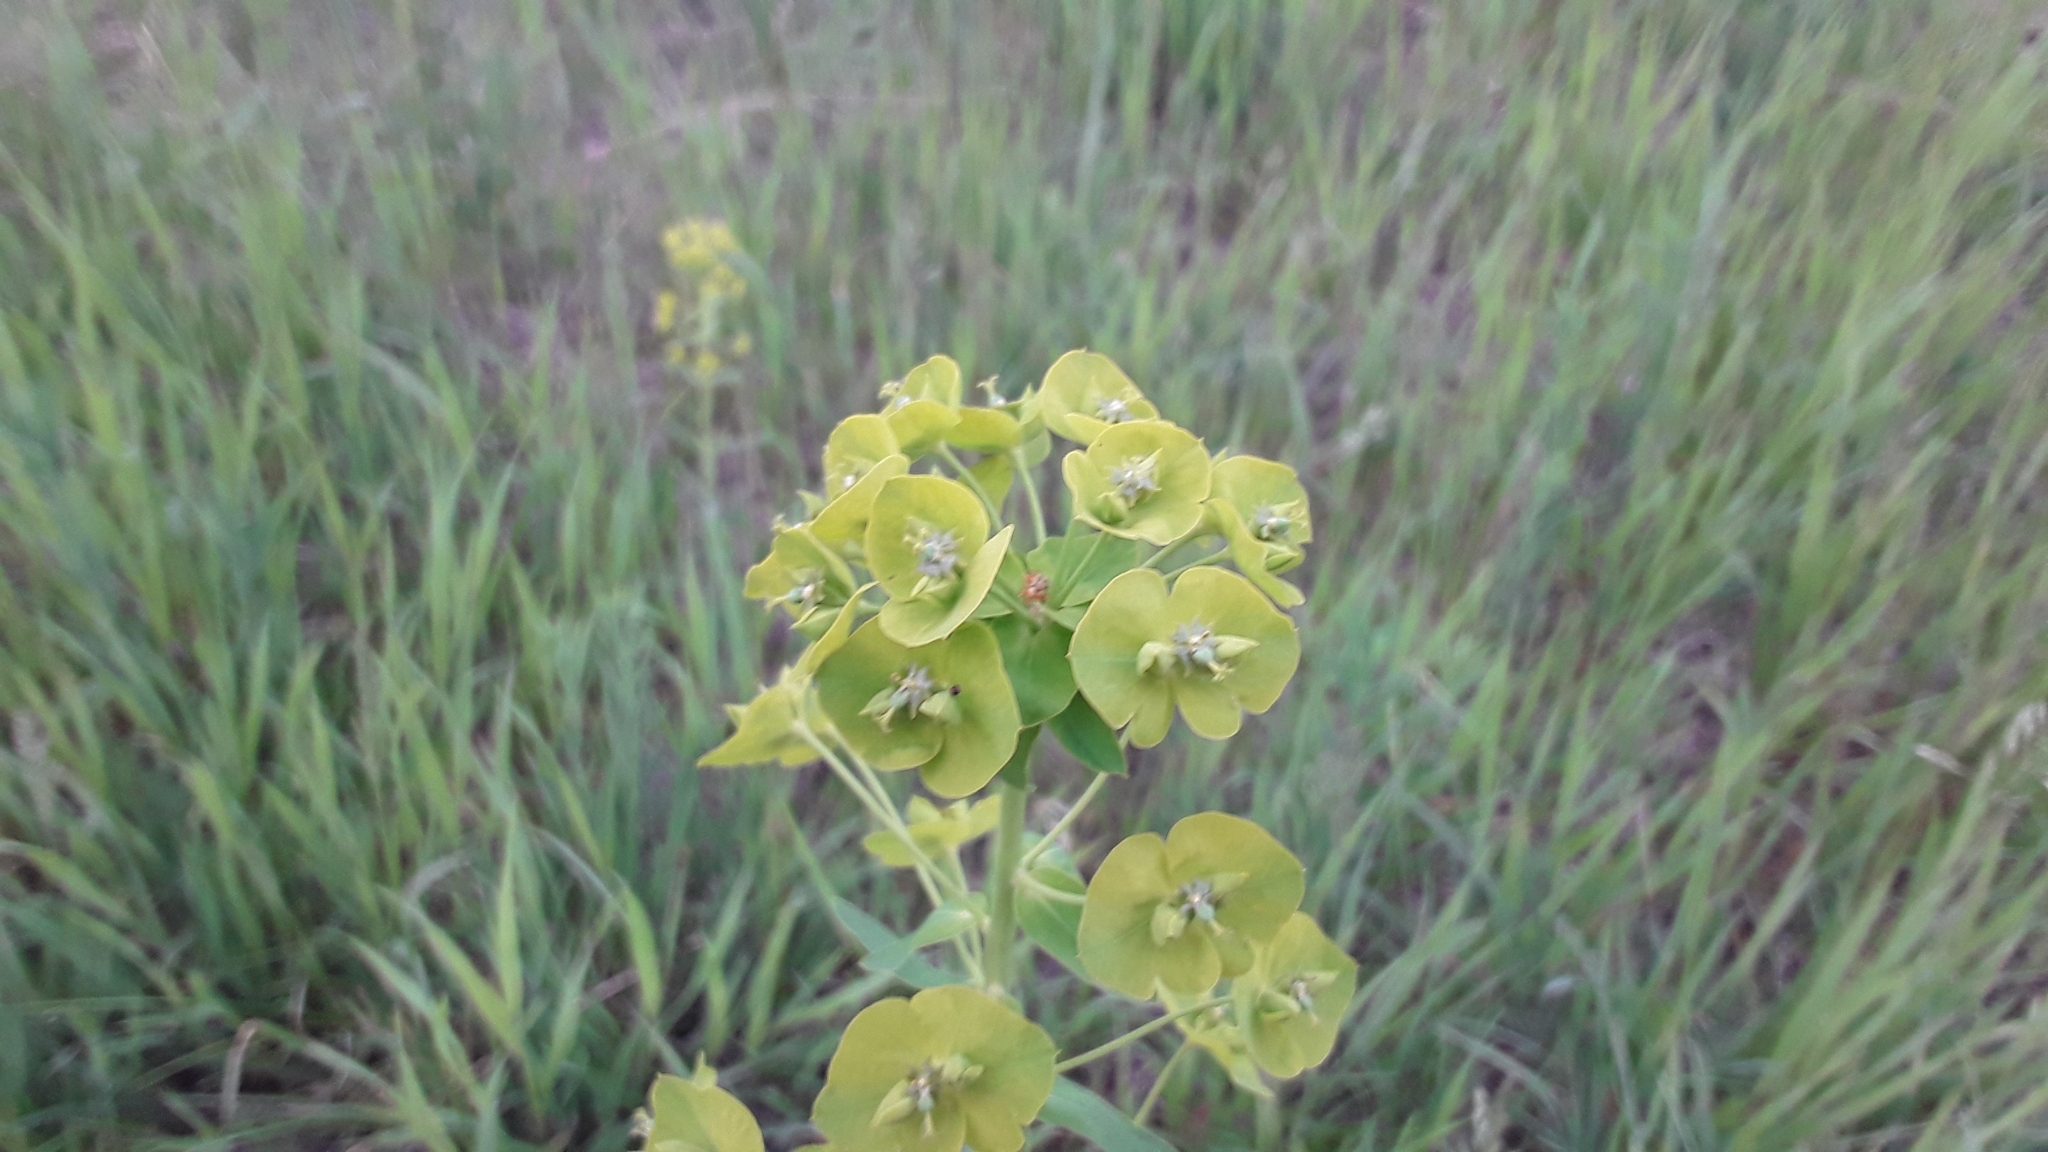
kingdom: Plantae
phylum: Tracheophyta
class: Magnoliopsida
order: Malpighiales
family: Euphorbiaceae
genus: Euphorbia
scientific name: Euphorbia virgata
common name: Leafy spurge
